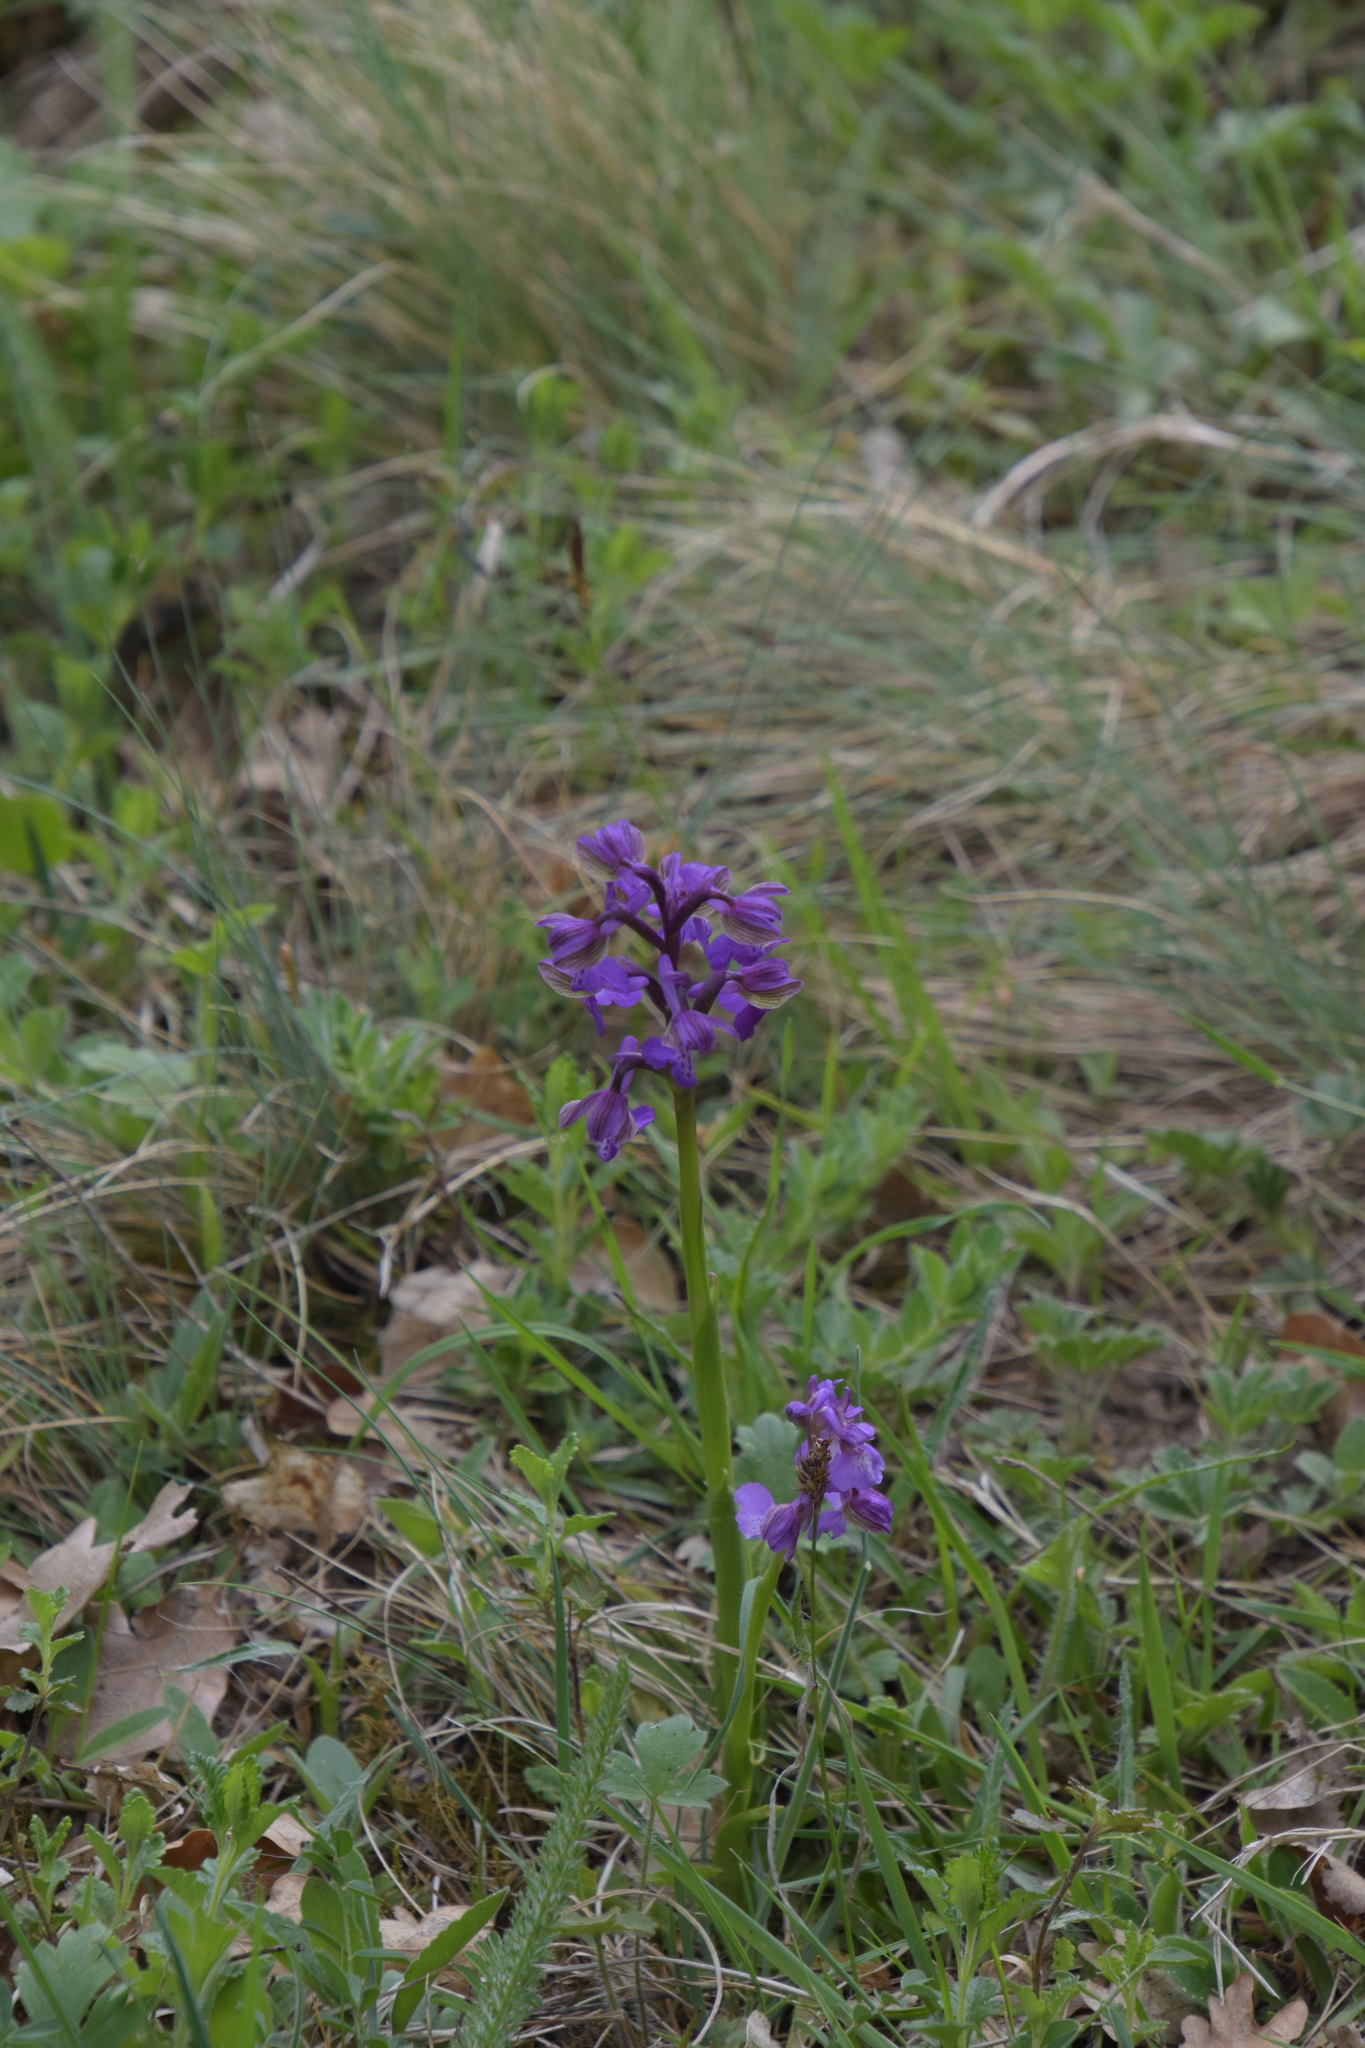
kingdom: Plantae
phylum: Tracheophyta
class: Liliopsida
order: Asparagales
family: Orchidaceae
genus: Anacamptis
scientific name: Anacamptis morio
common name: Green-winged orchid
